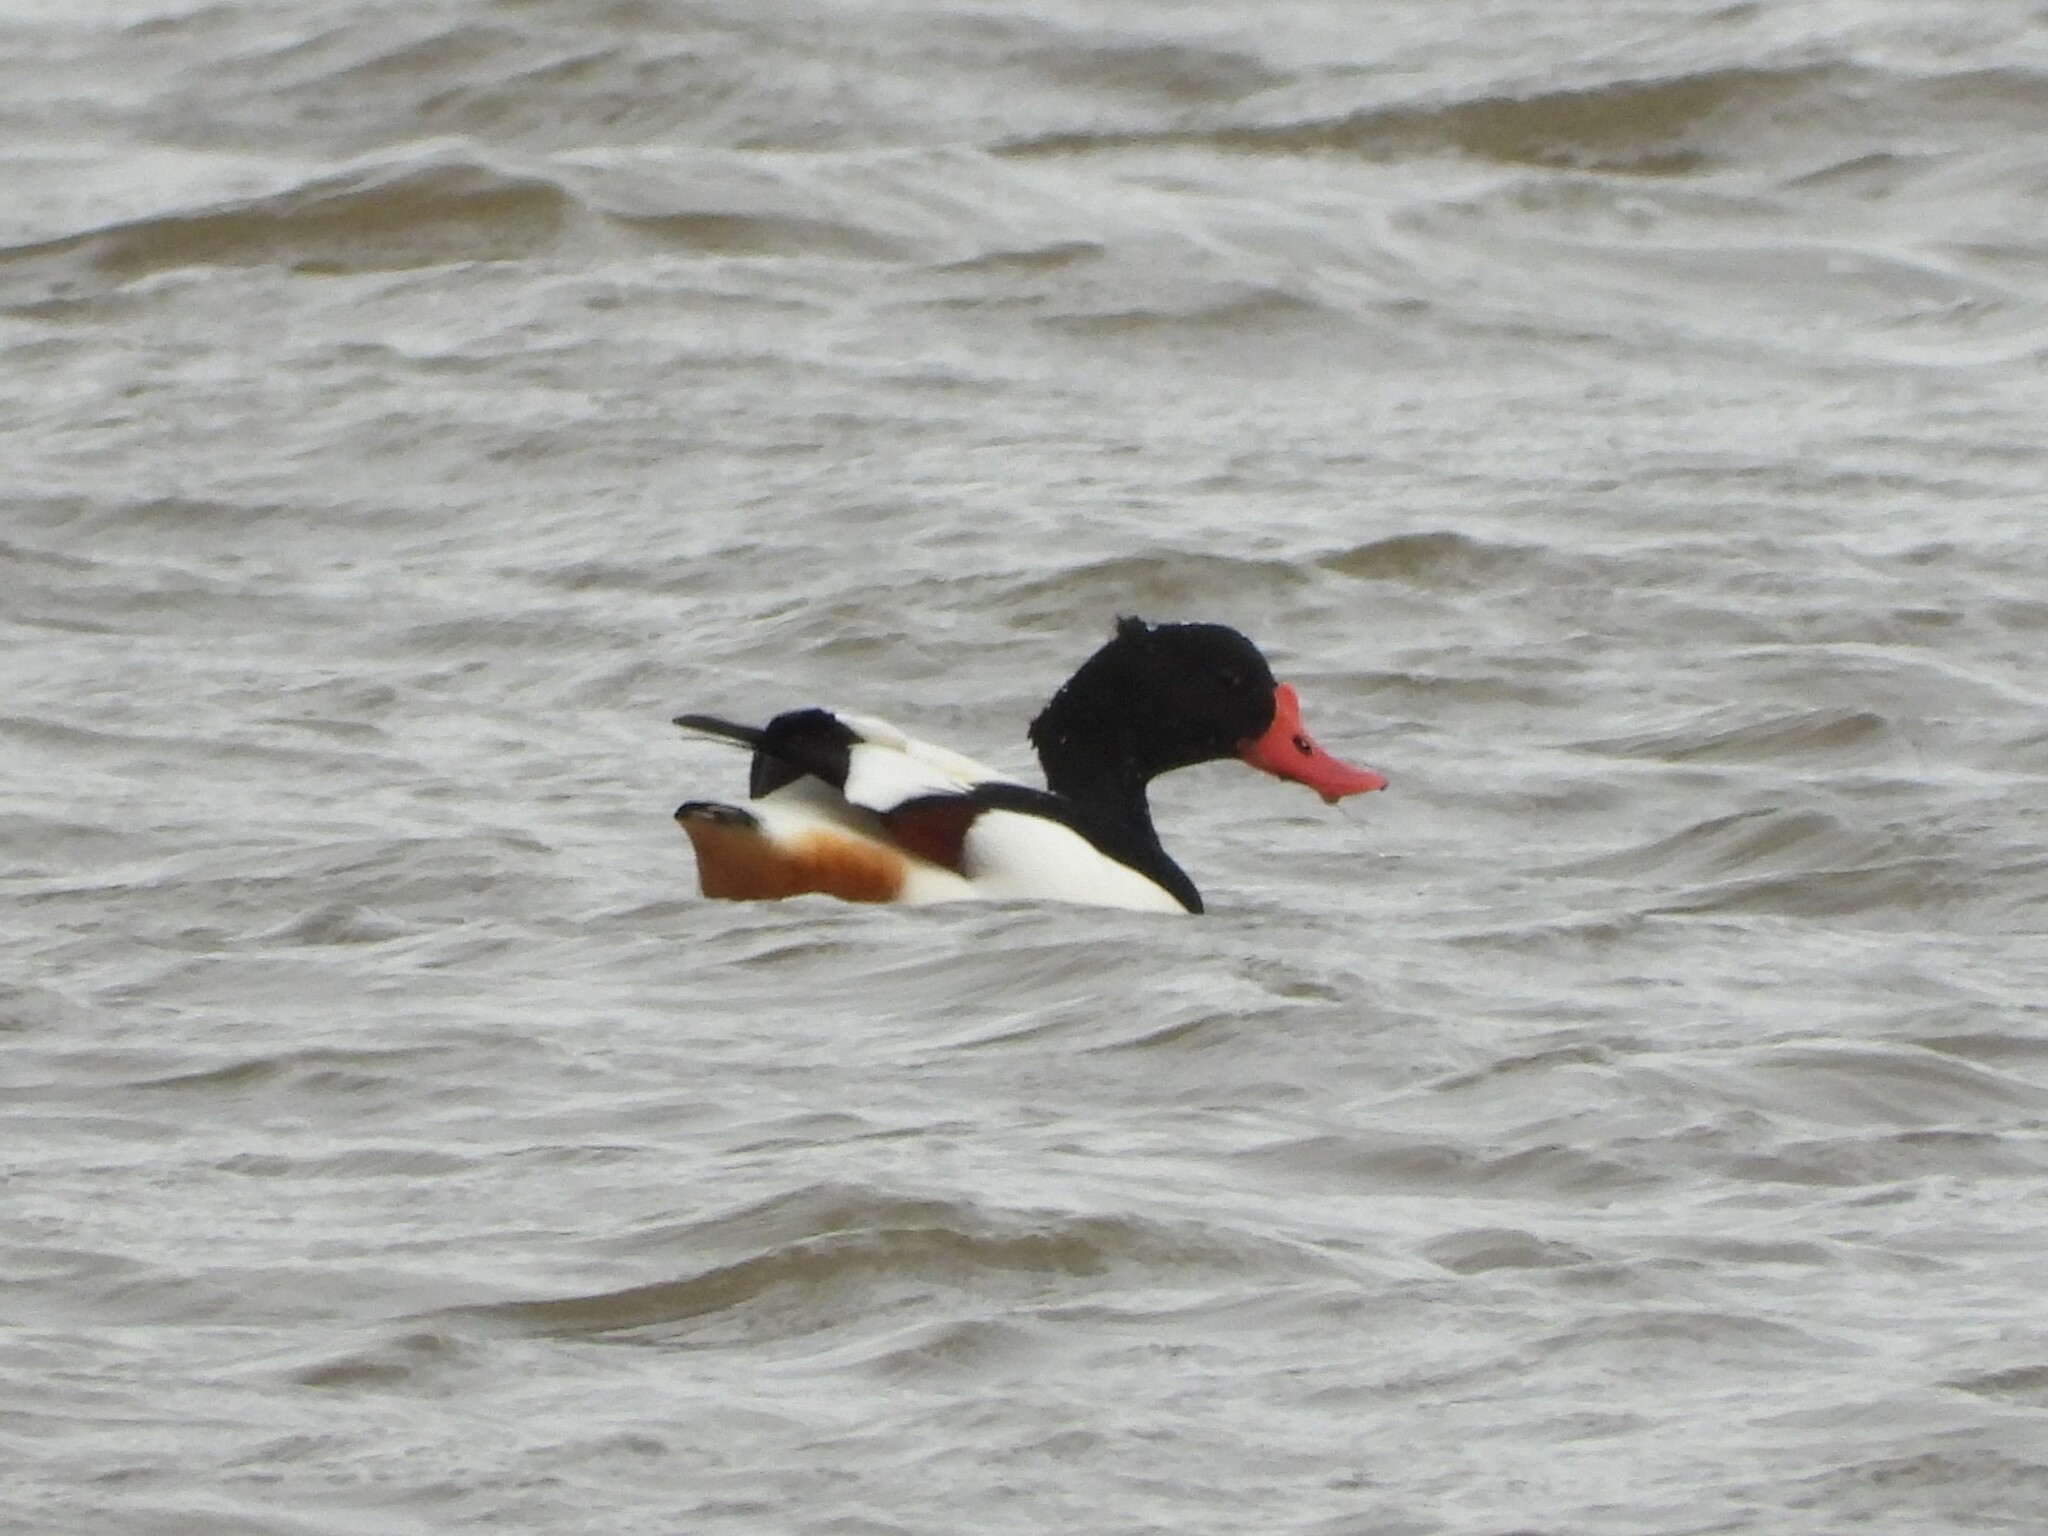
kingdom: Animalia
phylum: Chordata
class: Aves
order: Anseriformes
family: Anatidae
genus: Tadorna
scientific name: Tadorna tadorna
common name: Common shelduck
